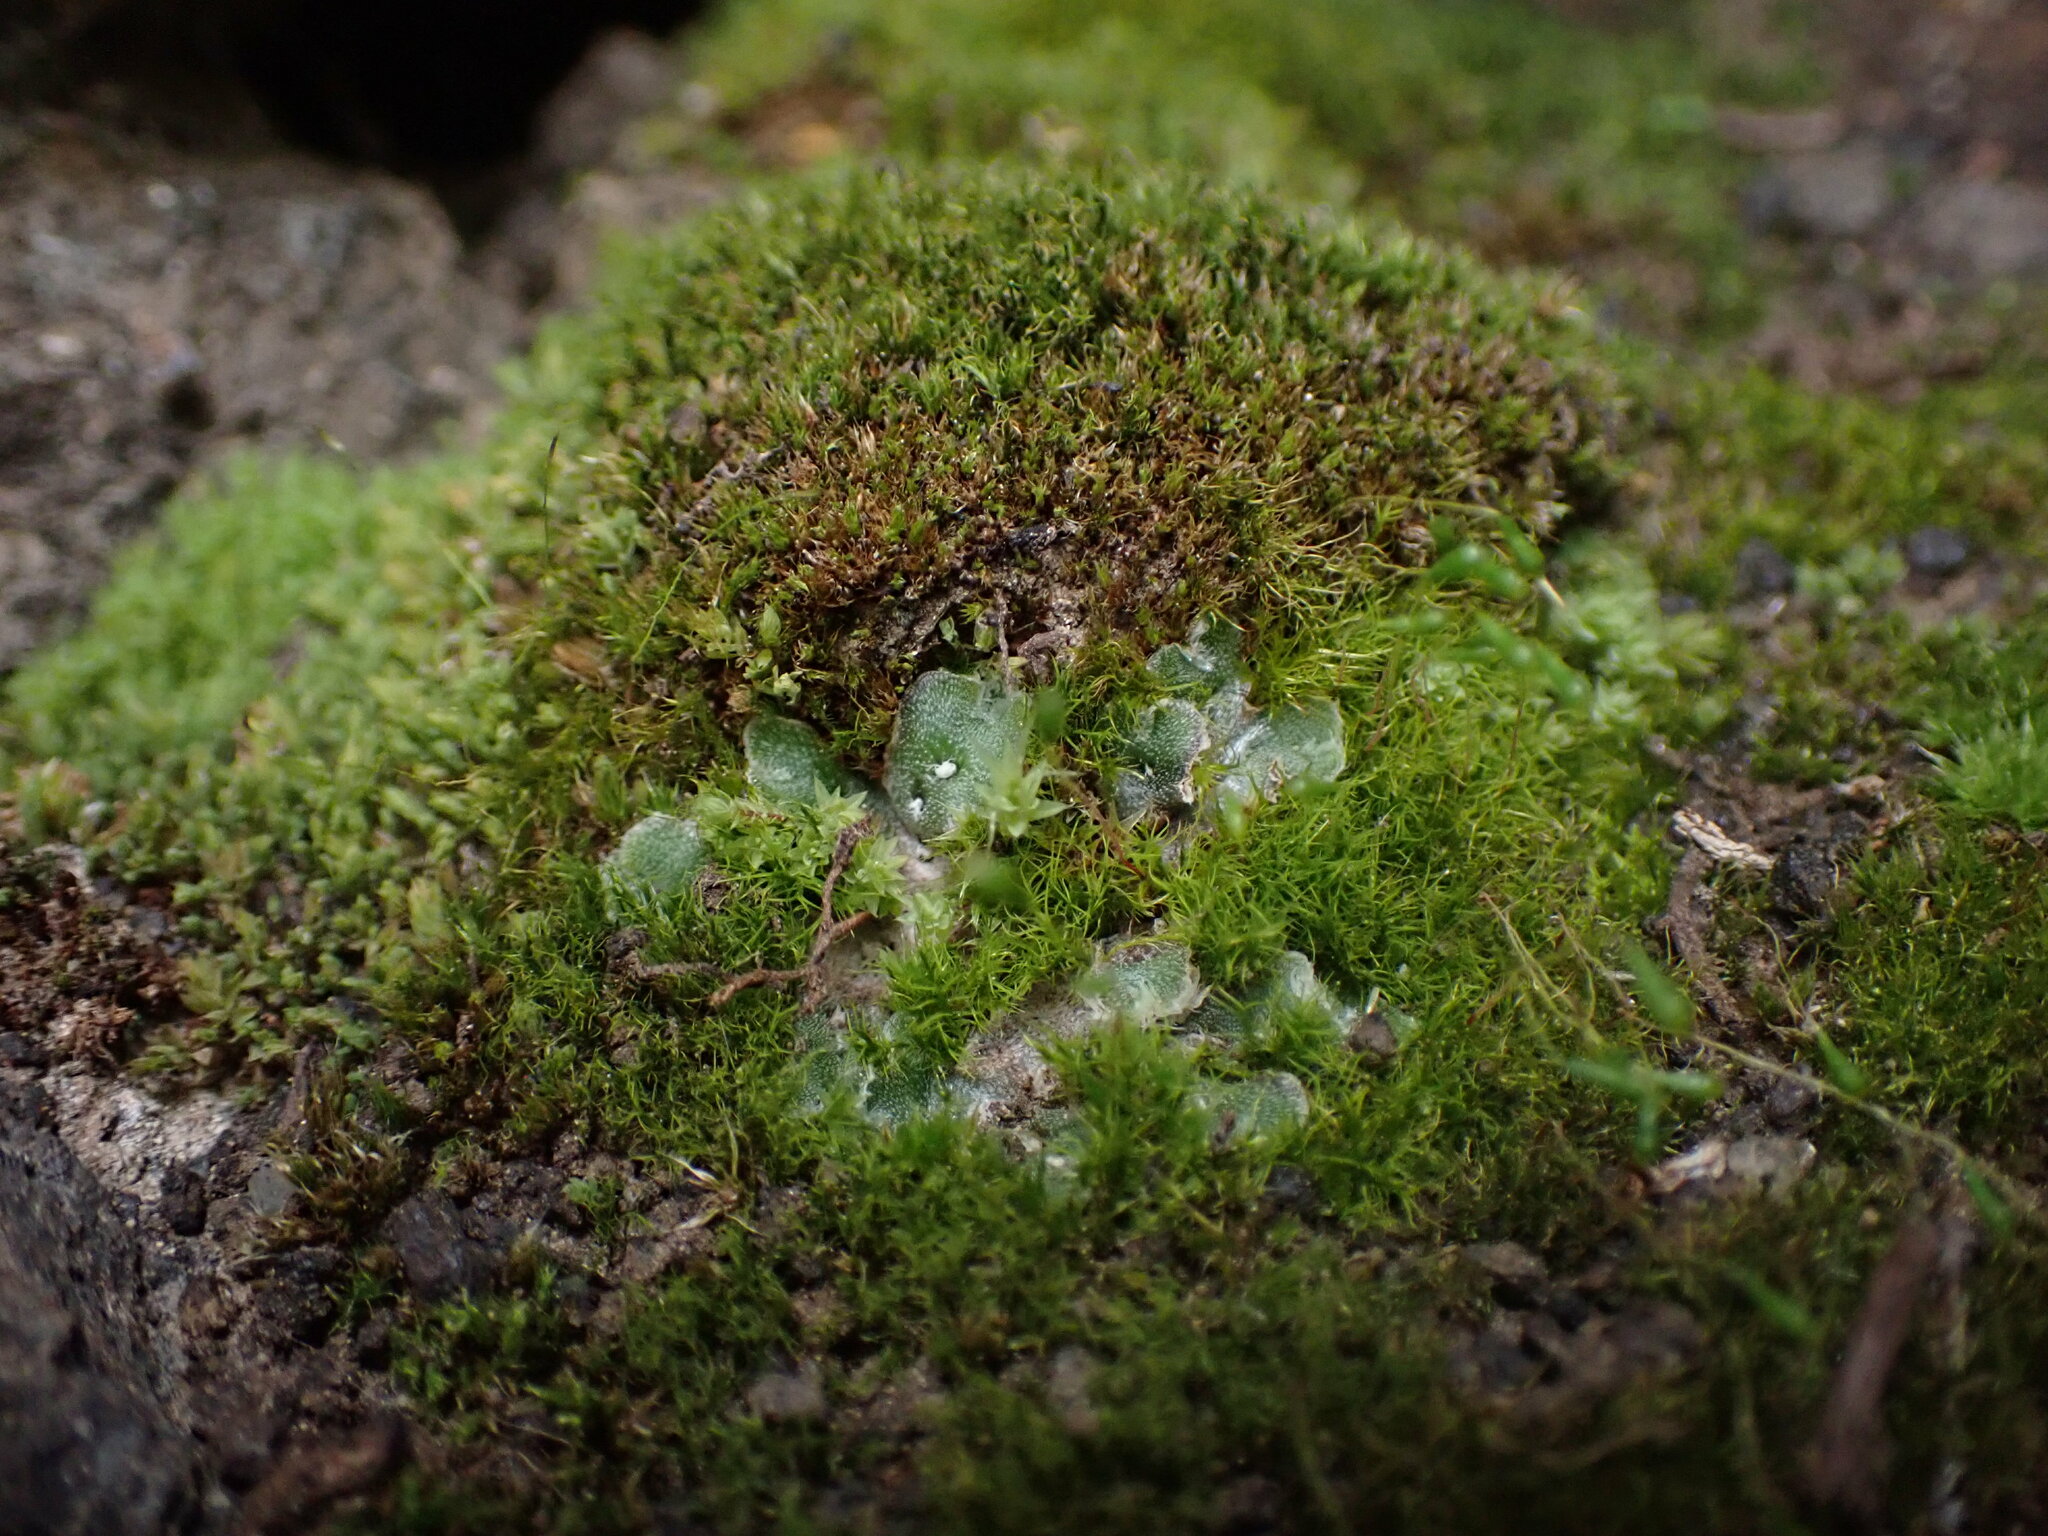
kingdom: Plantae
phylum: Marchantiophyta
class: Marchantiopsida
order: Marchantiales
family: Cleveaceae
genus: Clevea
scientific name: Clevea hyalina
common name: Hyaline liverwort
